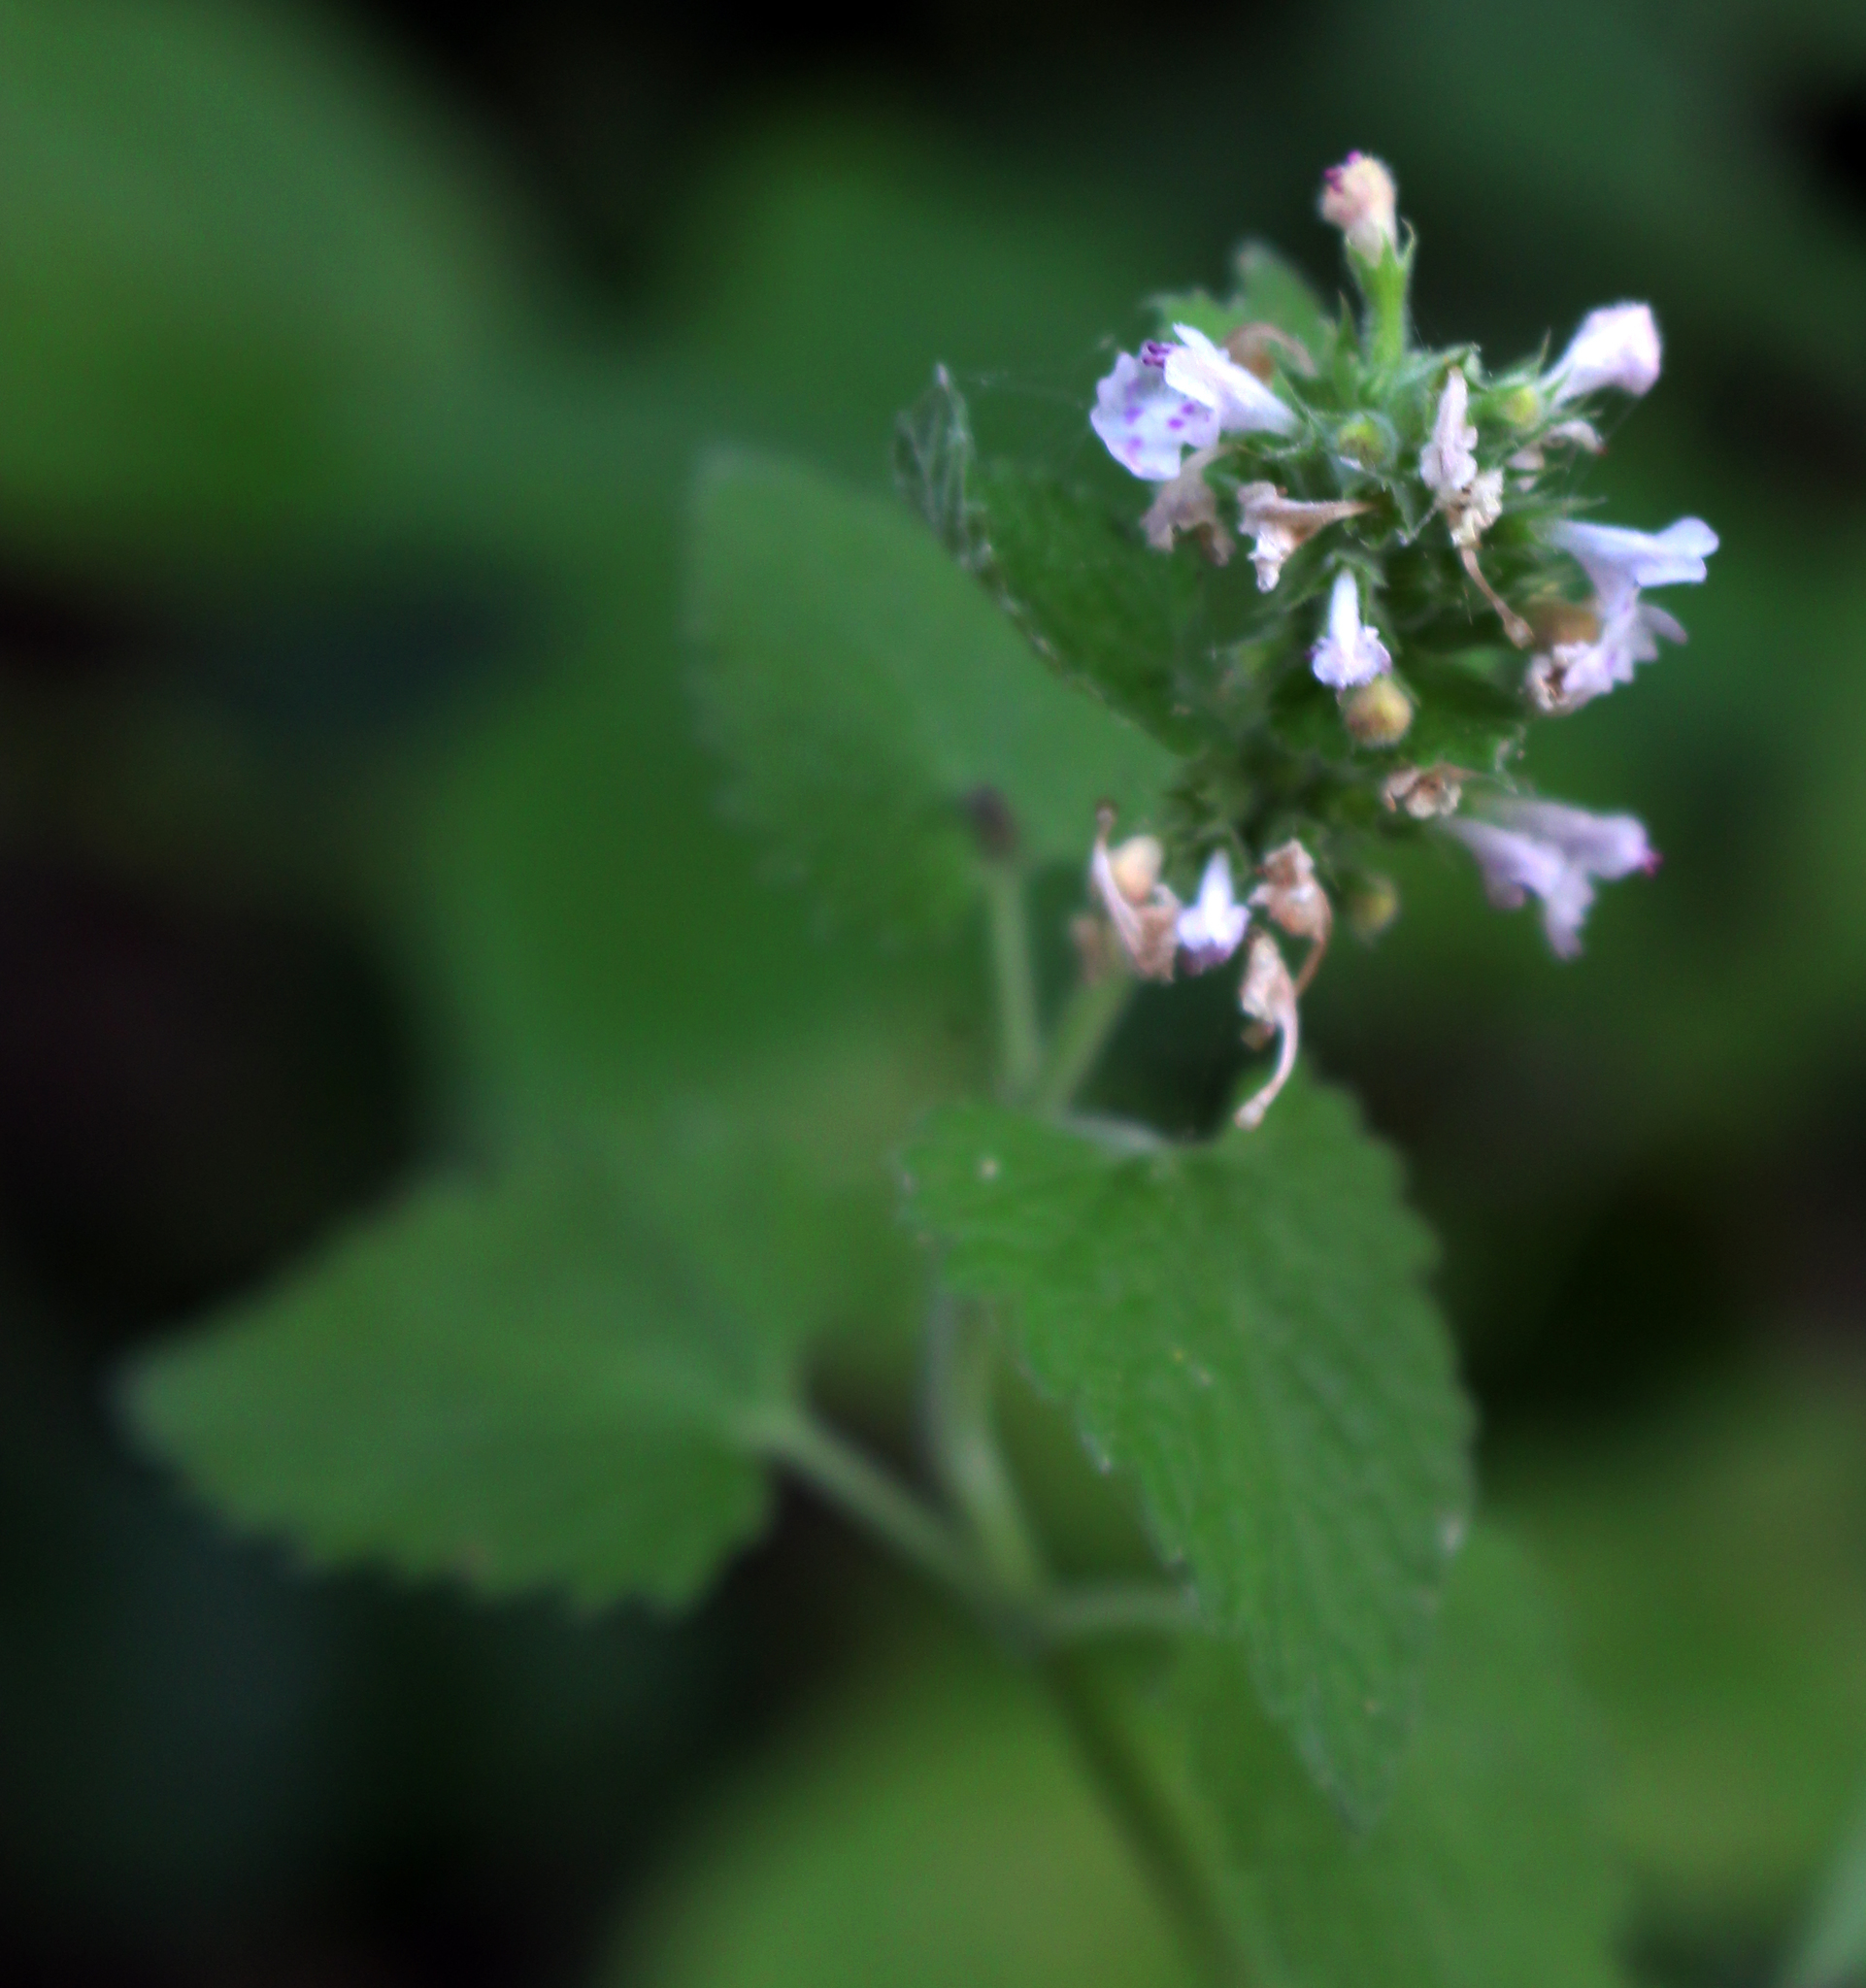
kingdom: Plantae
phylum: Tracheophyta
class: Magnoliopsida
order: Lamiales
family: Lamiaceae
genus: Nepeta
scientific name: Nepeta cataria
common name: Catnip
